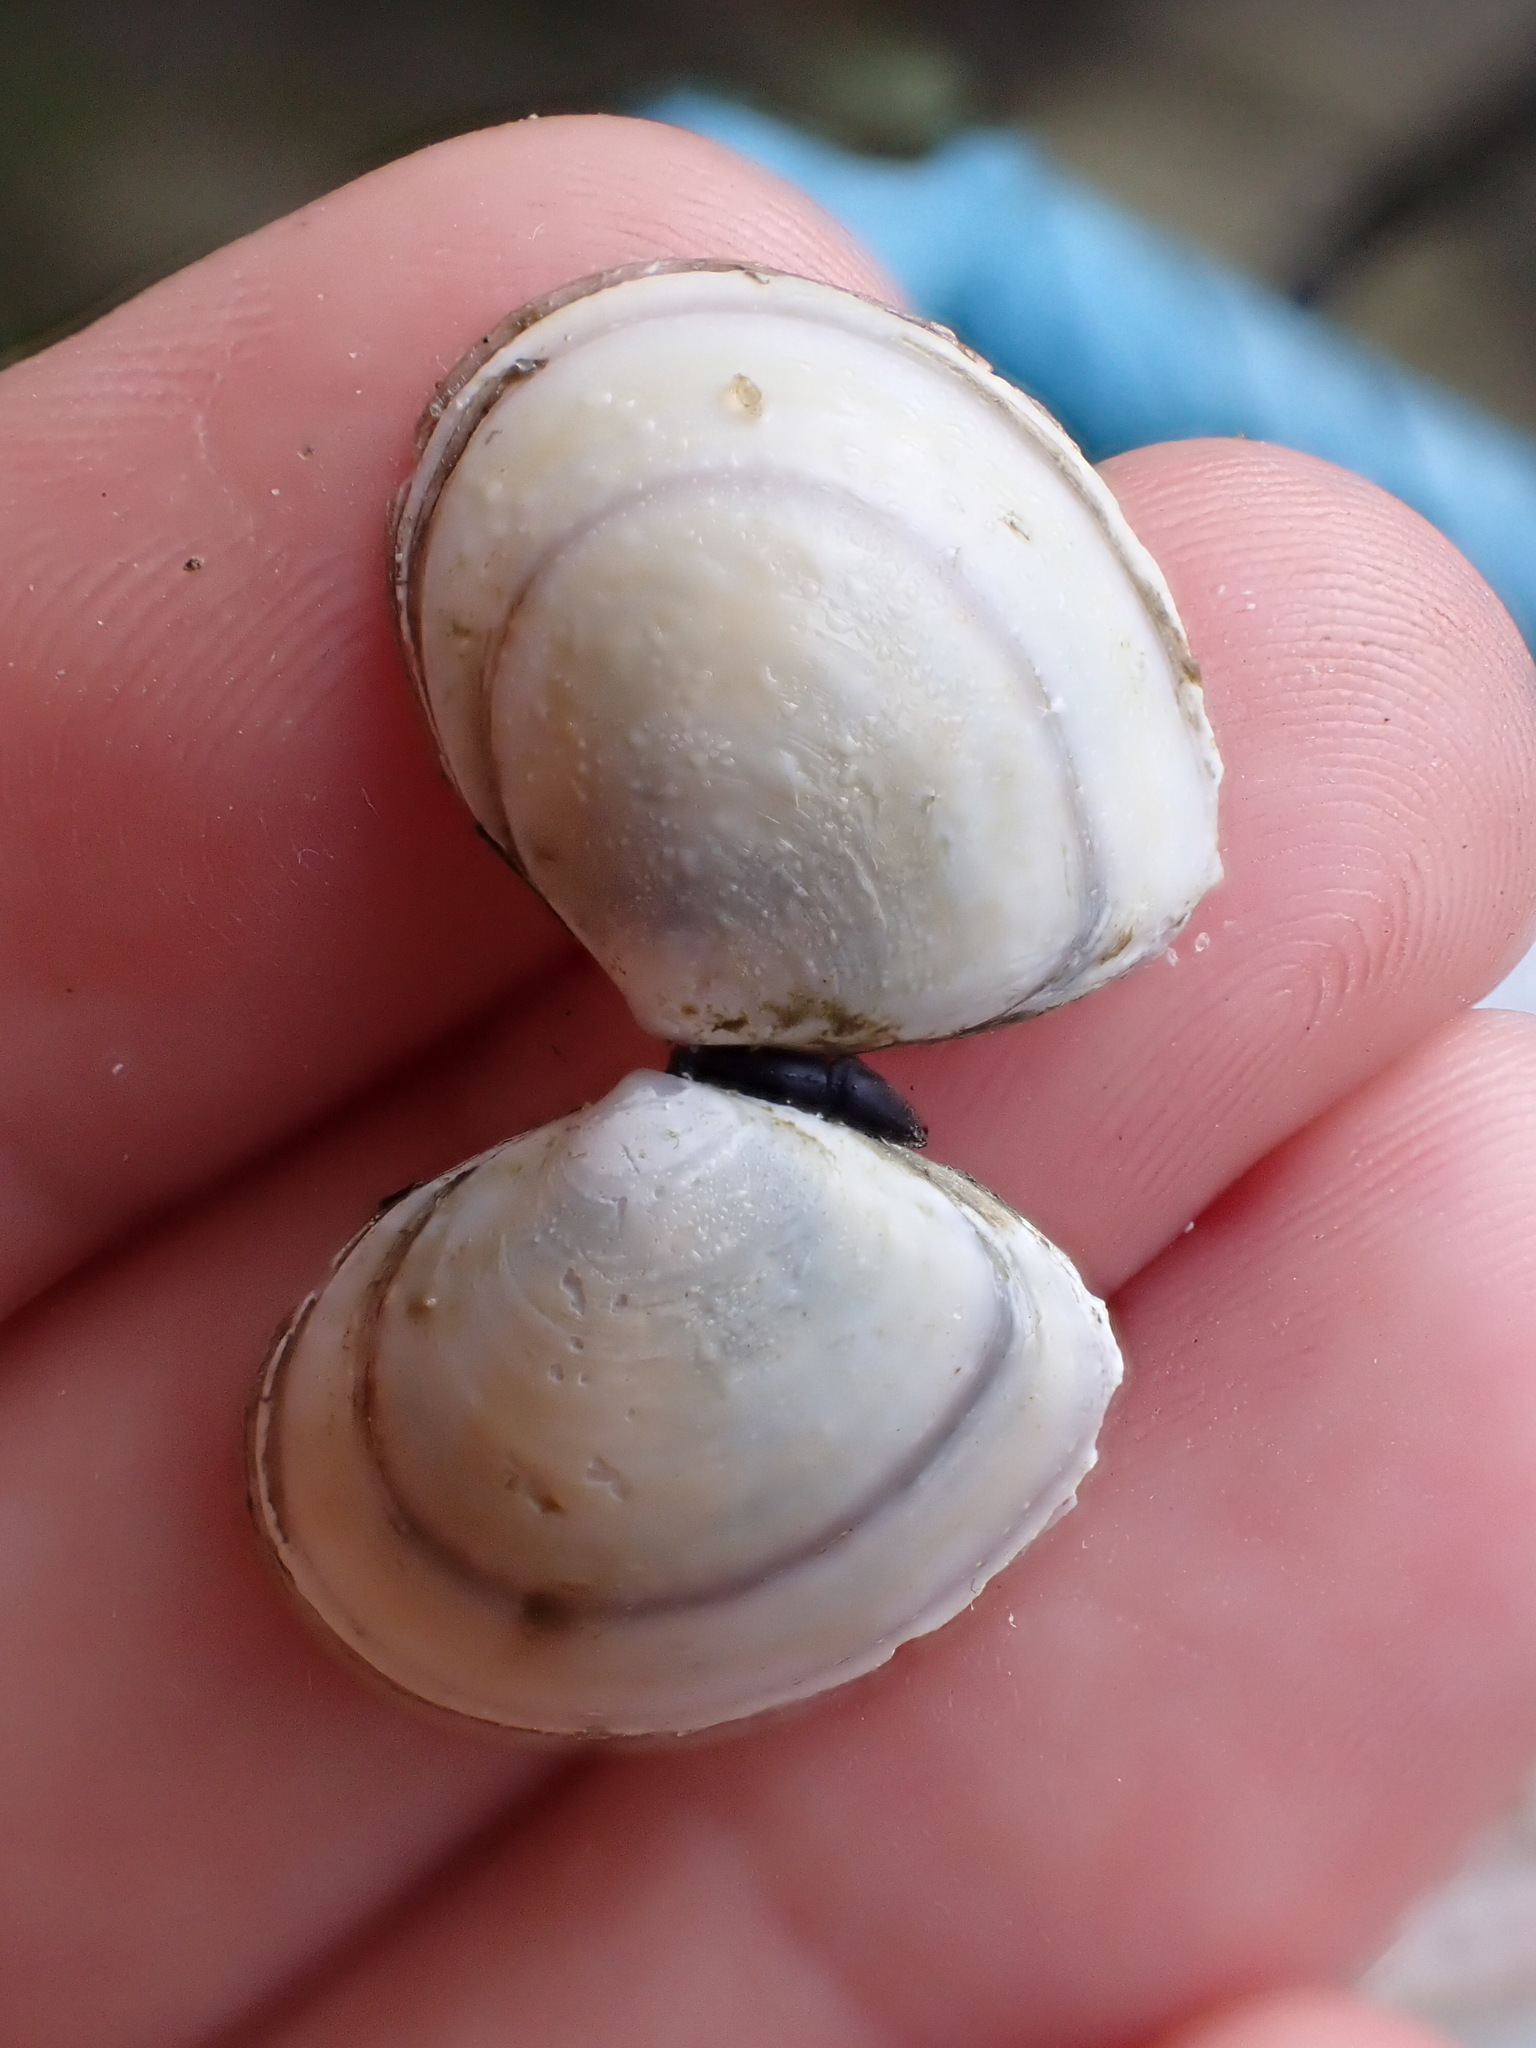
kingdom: Animalia
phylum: Mollusca
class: Bivalvia
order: Cardiida
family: Tellinidae
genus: Macoma
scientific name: Macoma balthica
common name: Baltic tellin
